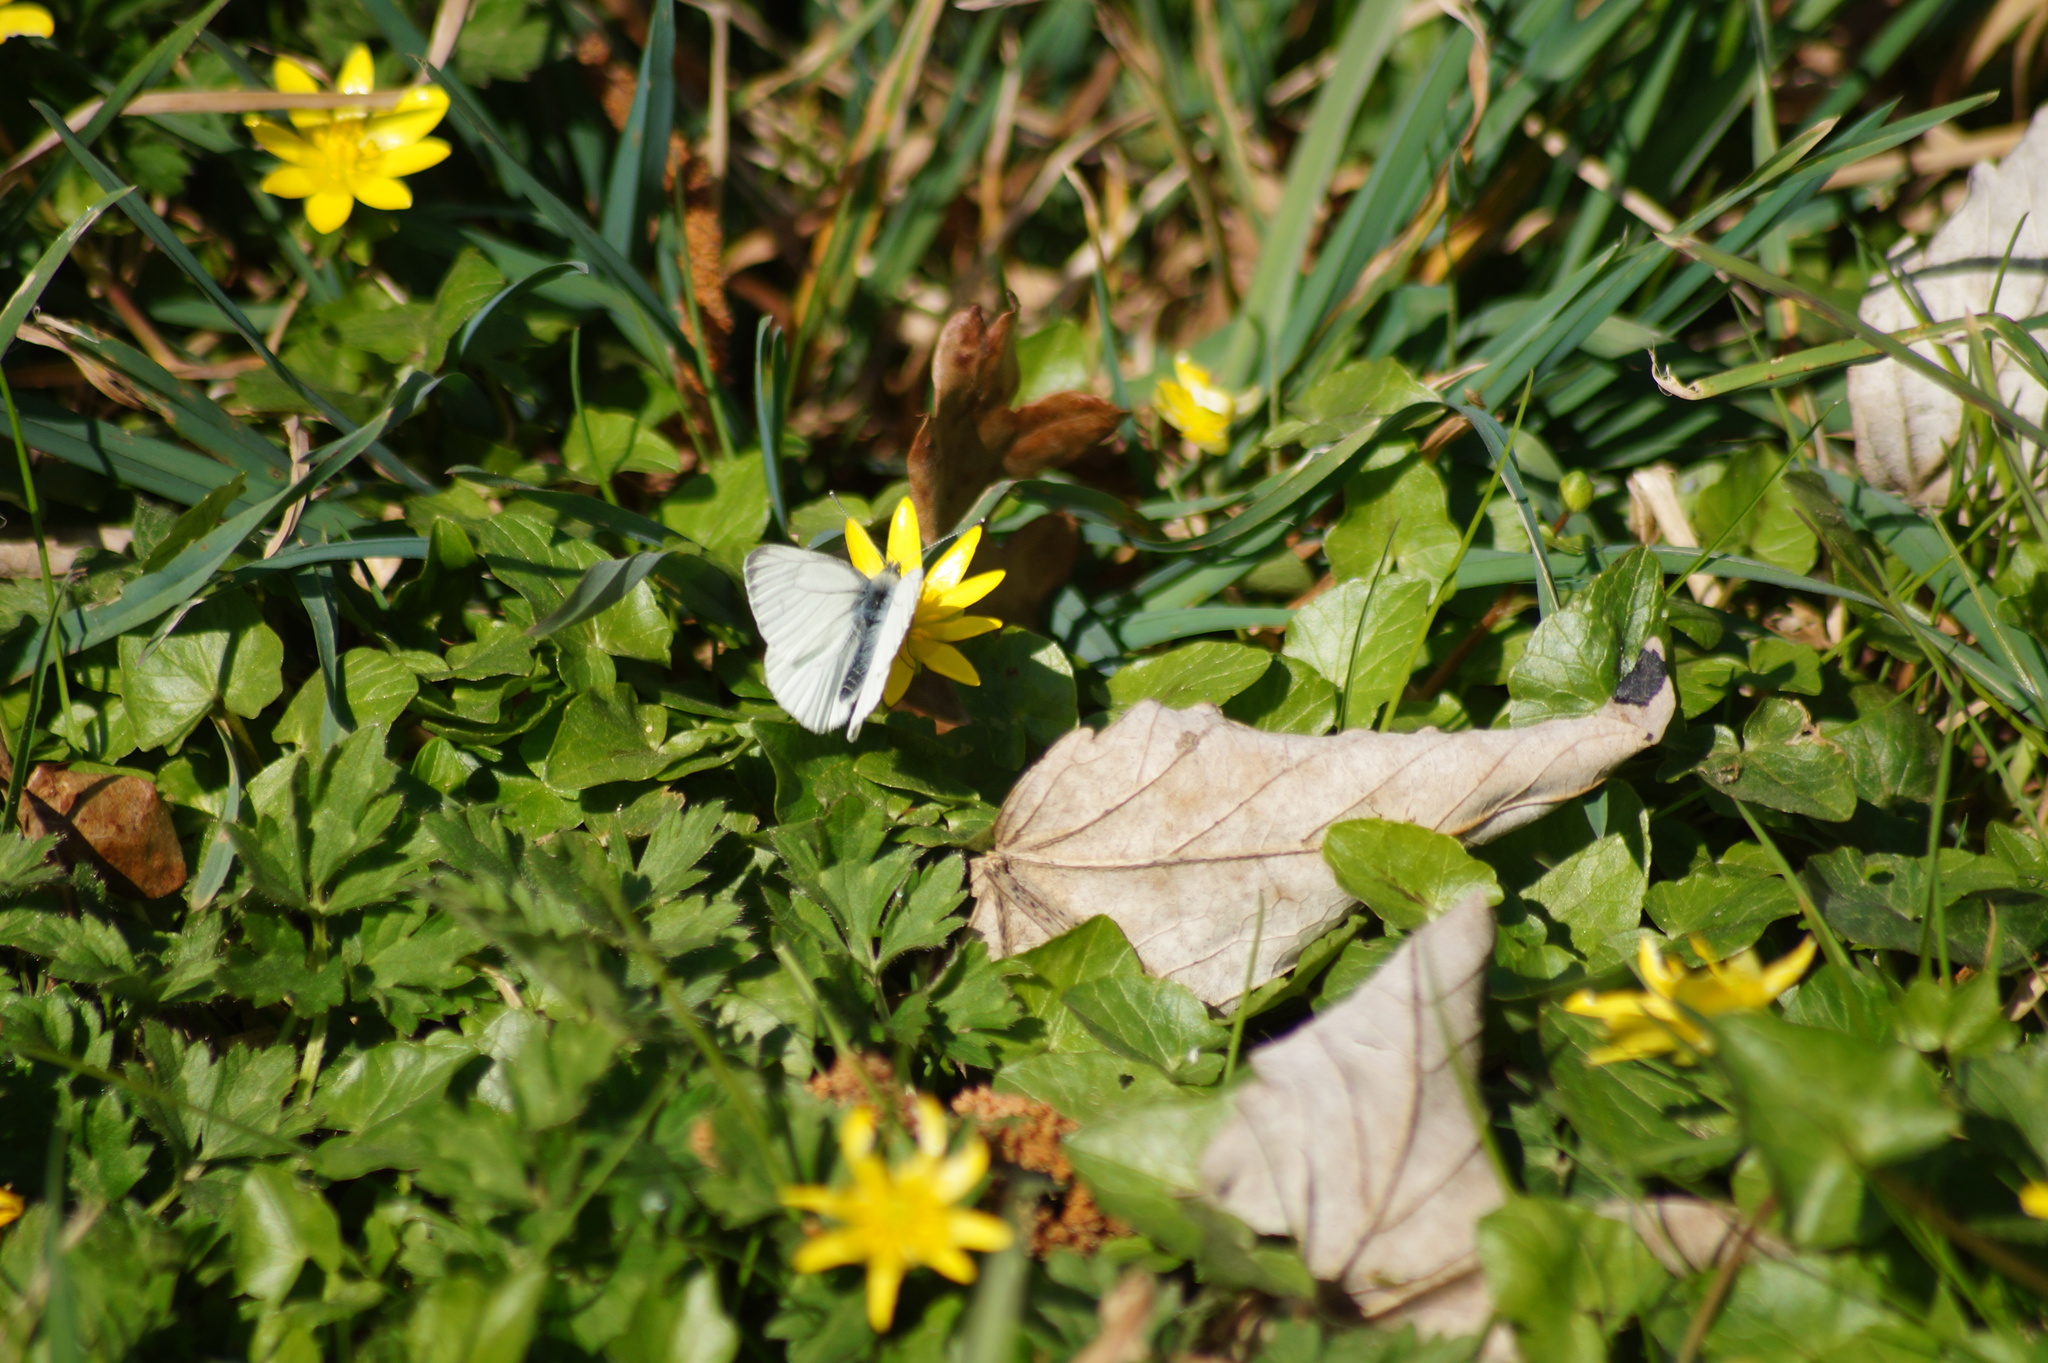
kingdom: Animalia
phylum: Arthropoda
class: Insecta
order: Lepidoptera
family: Pieridae
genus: Pieris
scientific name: Pieris napi
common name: Green-veined white
